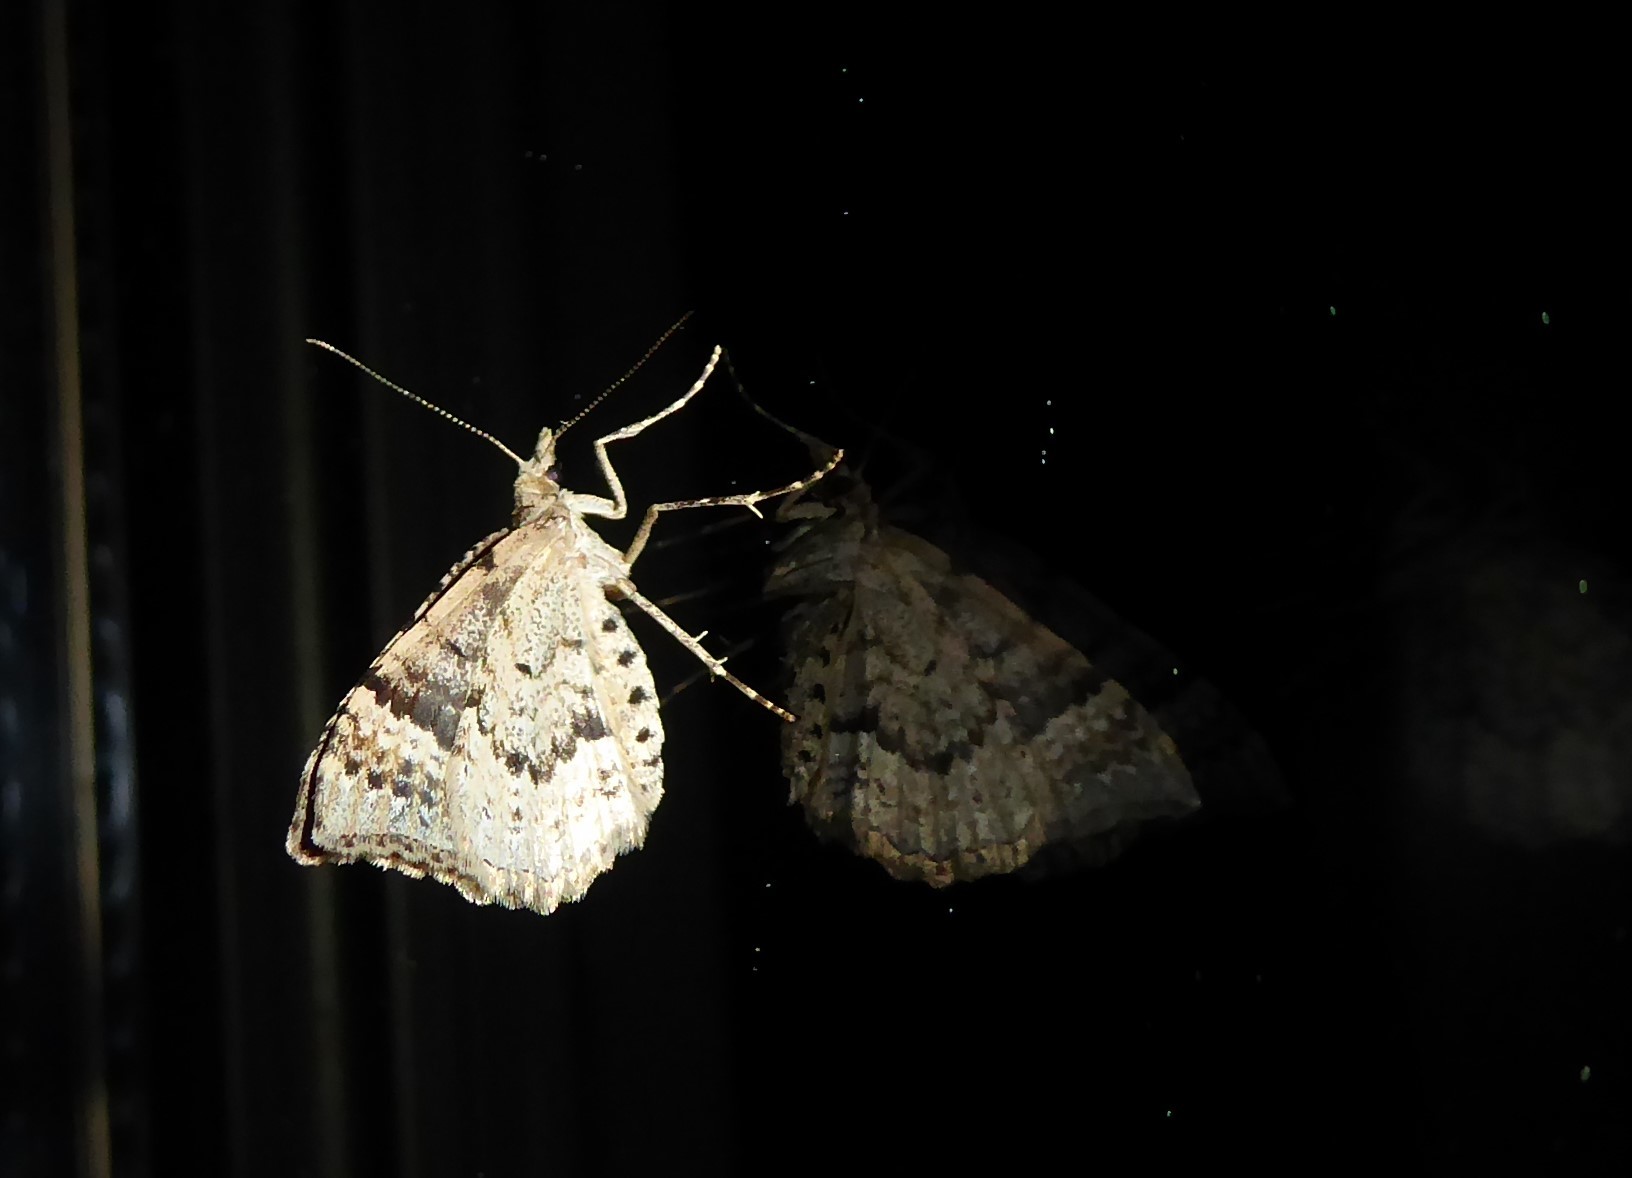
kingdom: Animalia
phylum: Arthropoda
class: Insecta
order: Lepidoptera
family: Geometridae
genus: Homodotis
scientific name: Homodotis falcata
